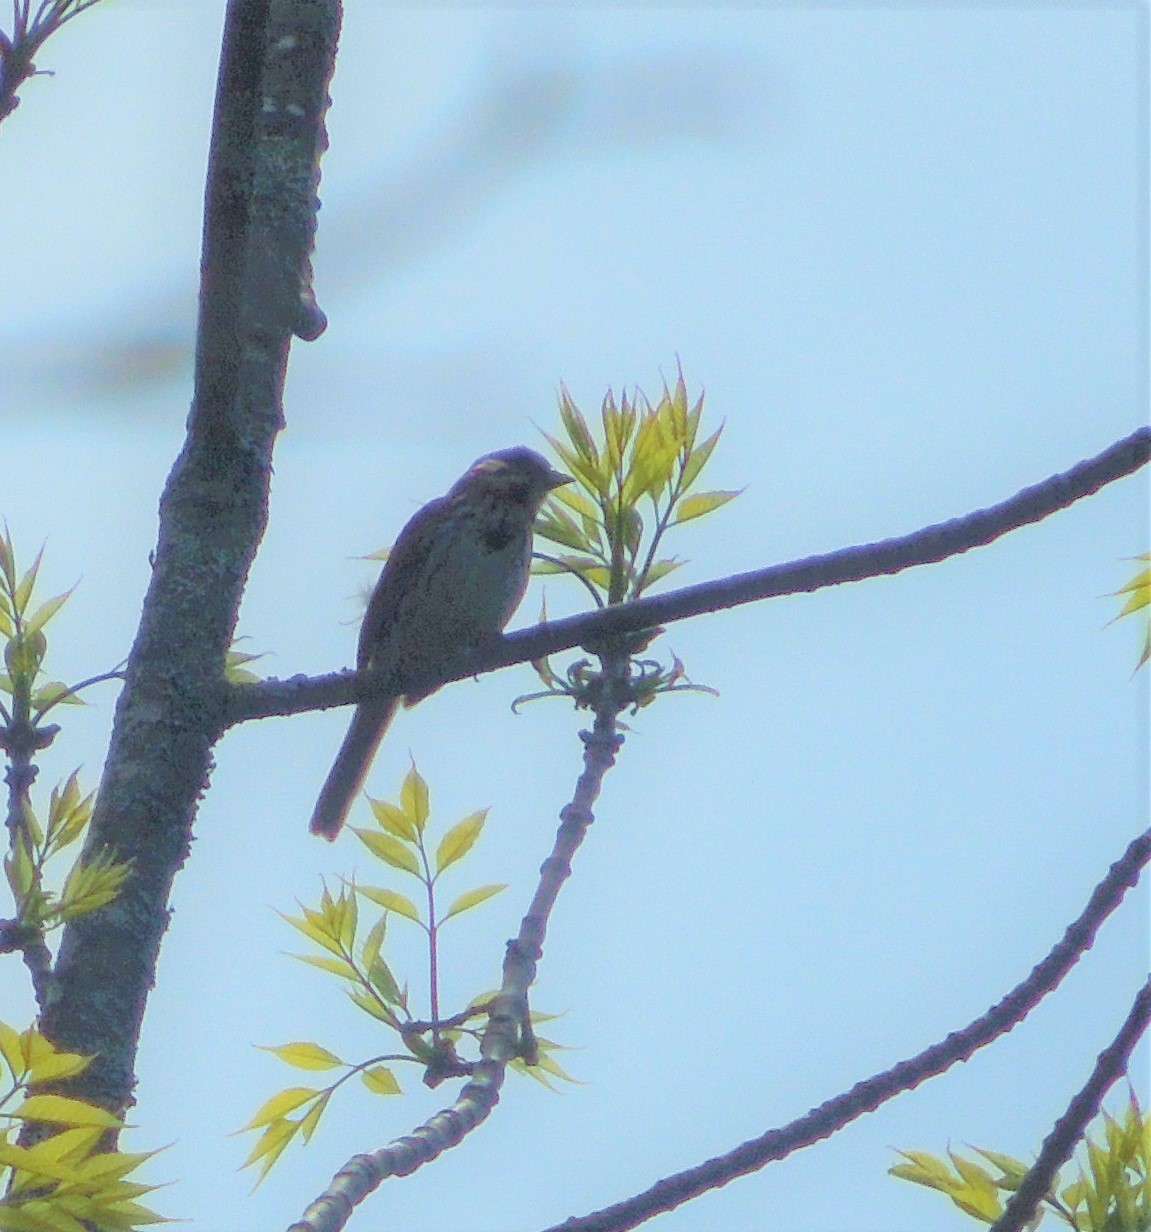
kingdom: Animalia
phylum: Chordata
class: Aves
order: Passeriformes
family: Passerellidae
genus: Melospiza
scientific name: Melospiza melodia
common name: Song sparrow
